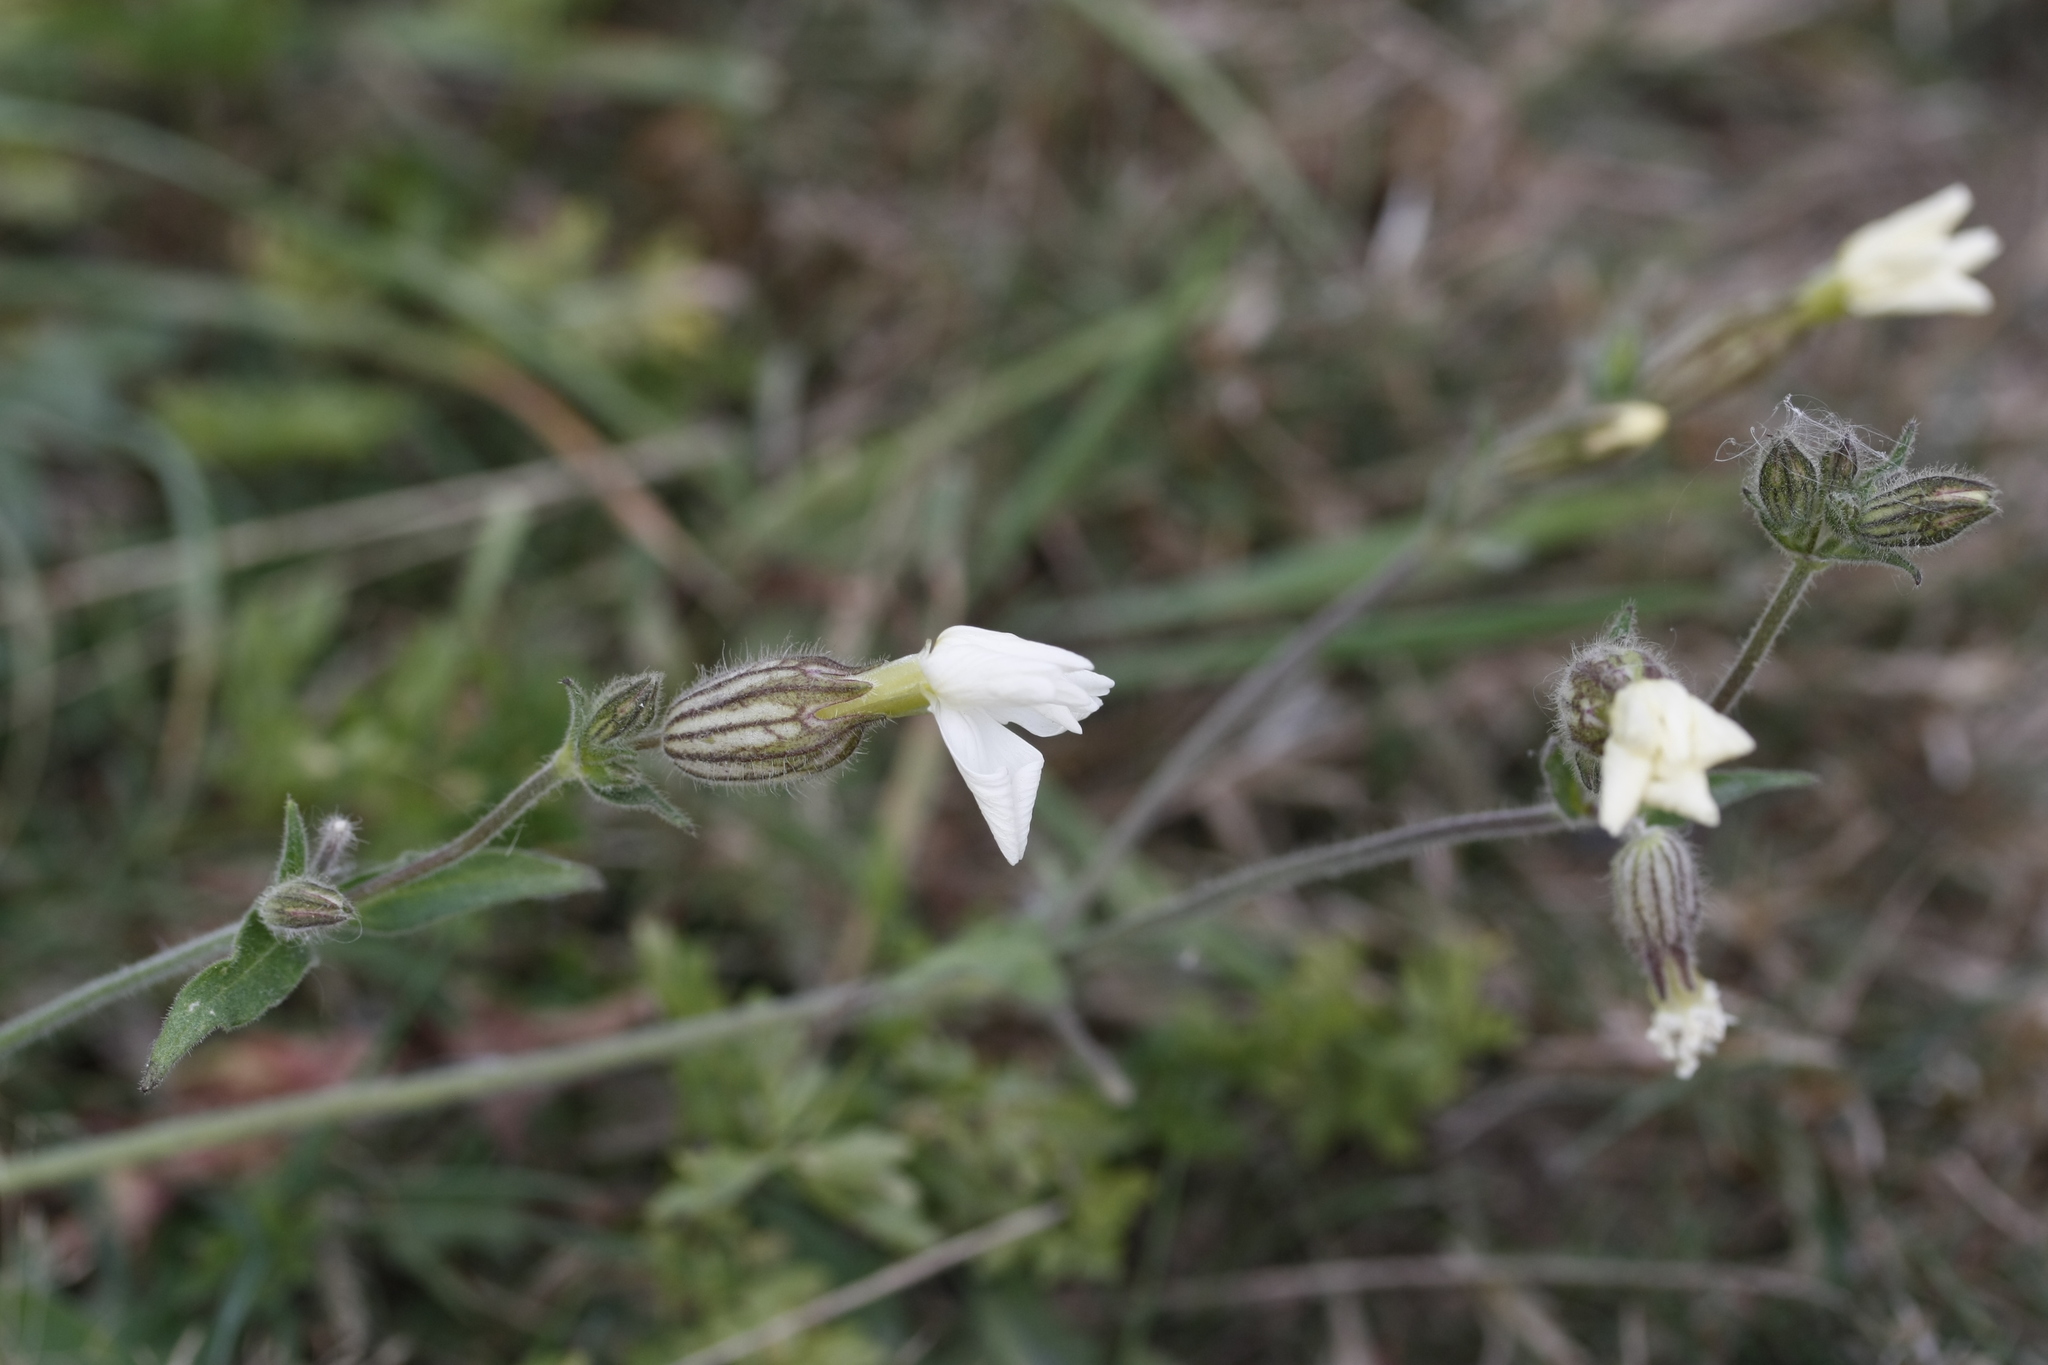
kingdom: Plantae
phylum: Tracheophyta
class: Magnoliopsida
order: Caryophyllales
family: Caryophyllaceae
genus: Silene
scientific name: Silene latifolia
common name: White campion
